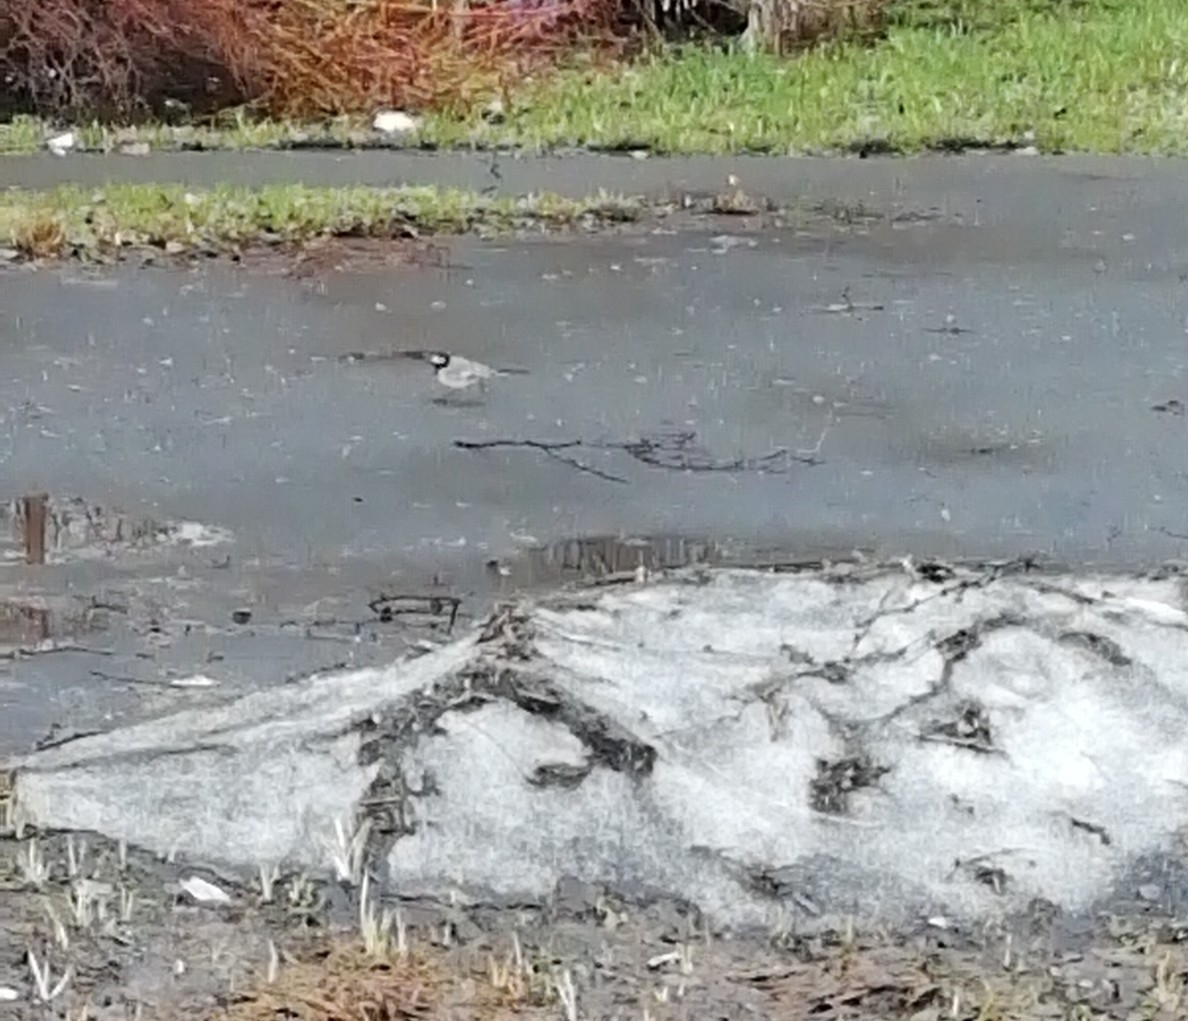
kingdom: Animalia
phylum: Chordata
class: Aves
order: Passeriformes
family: Motacillidae
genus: Motacilla
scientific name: Motacilla alba
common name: White wagtail
